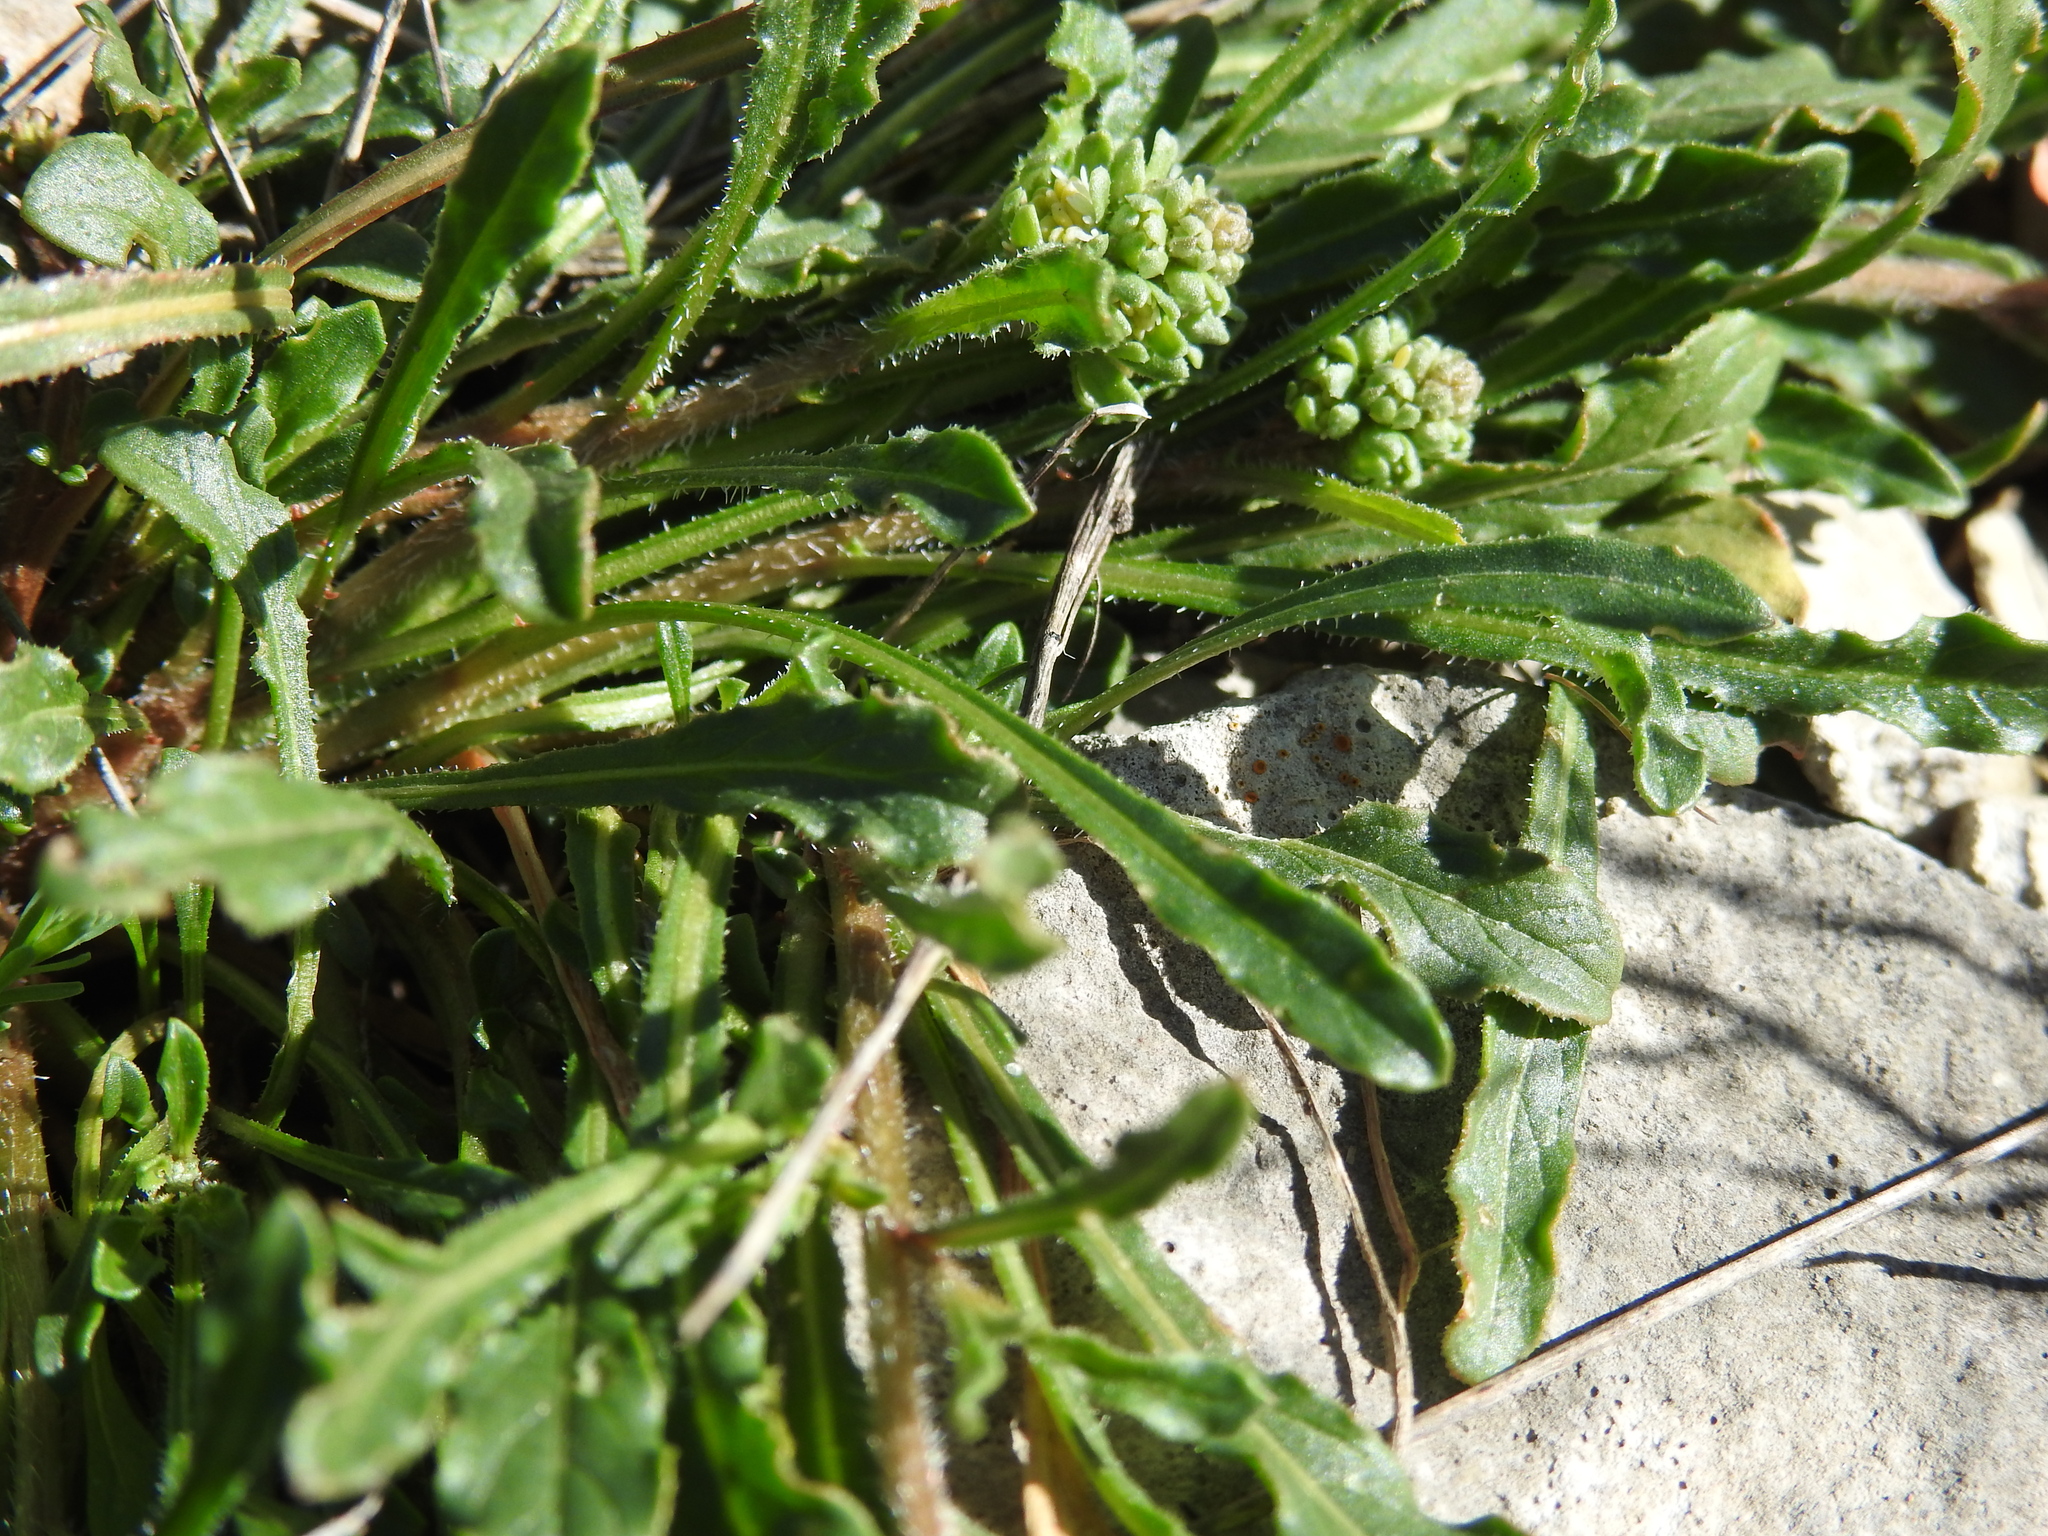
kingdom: Plantae
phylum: Tracheophyta
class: Magnoliopsida
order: Brassicales
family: Resedaceae
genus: Reseda
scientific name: Reseda phyteuma
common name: Corn mignonette
